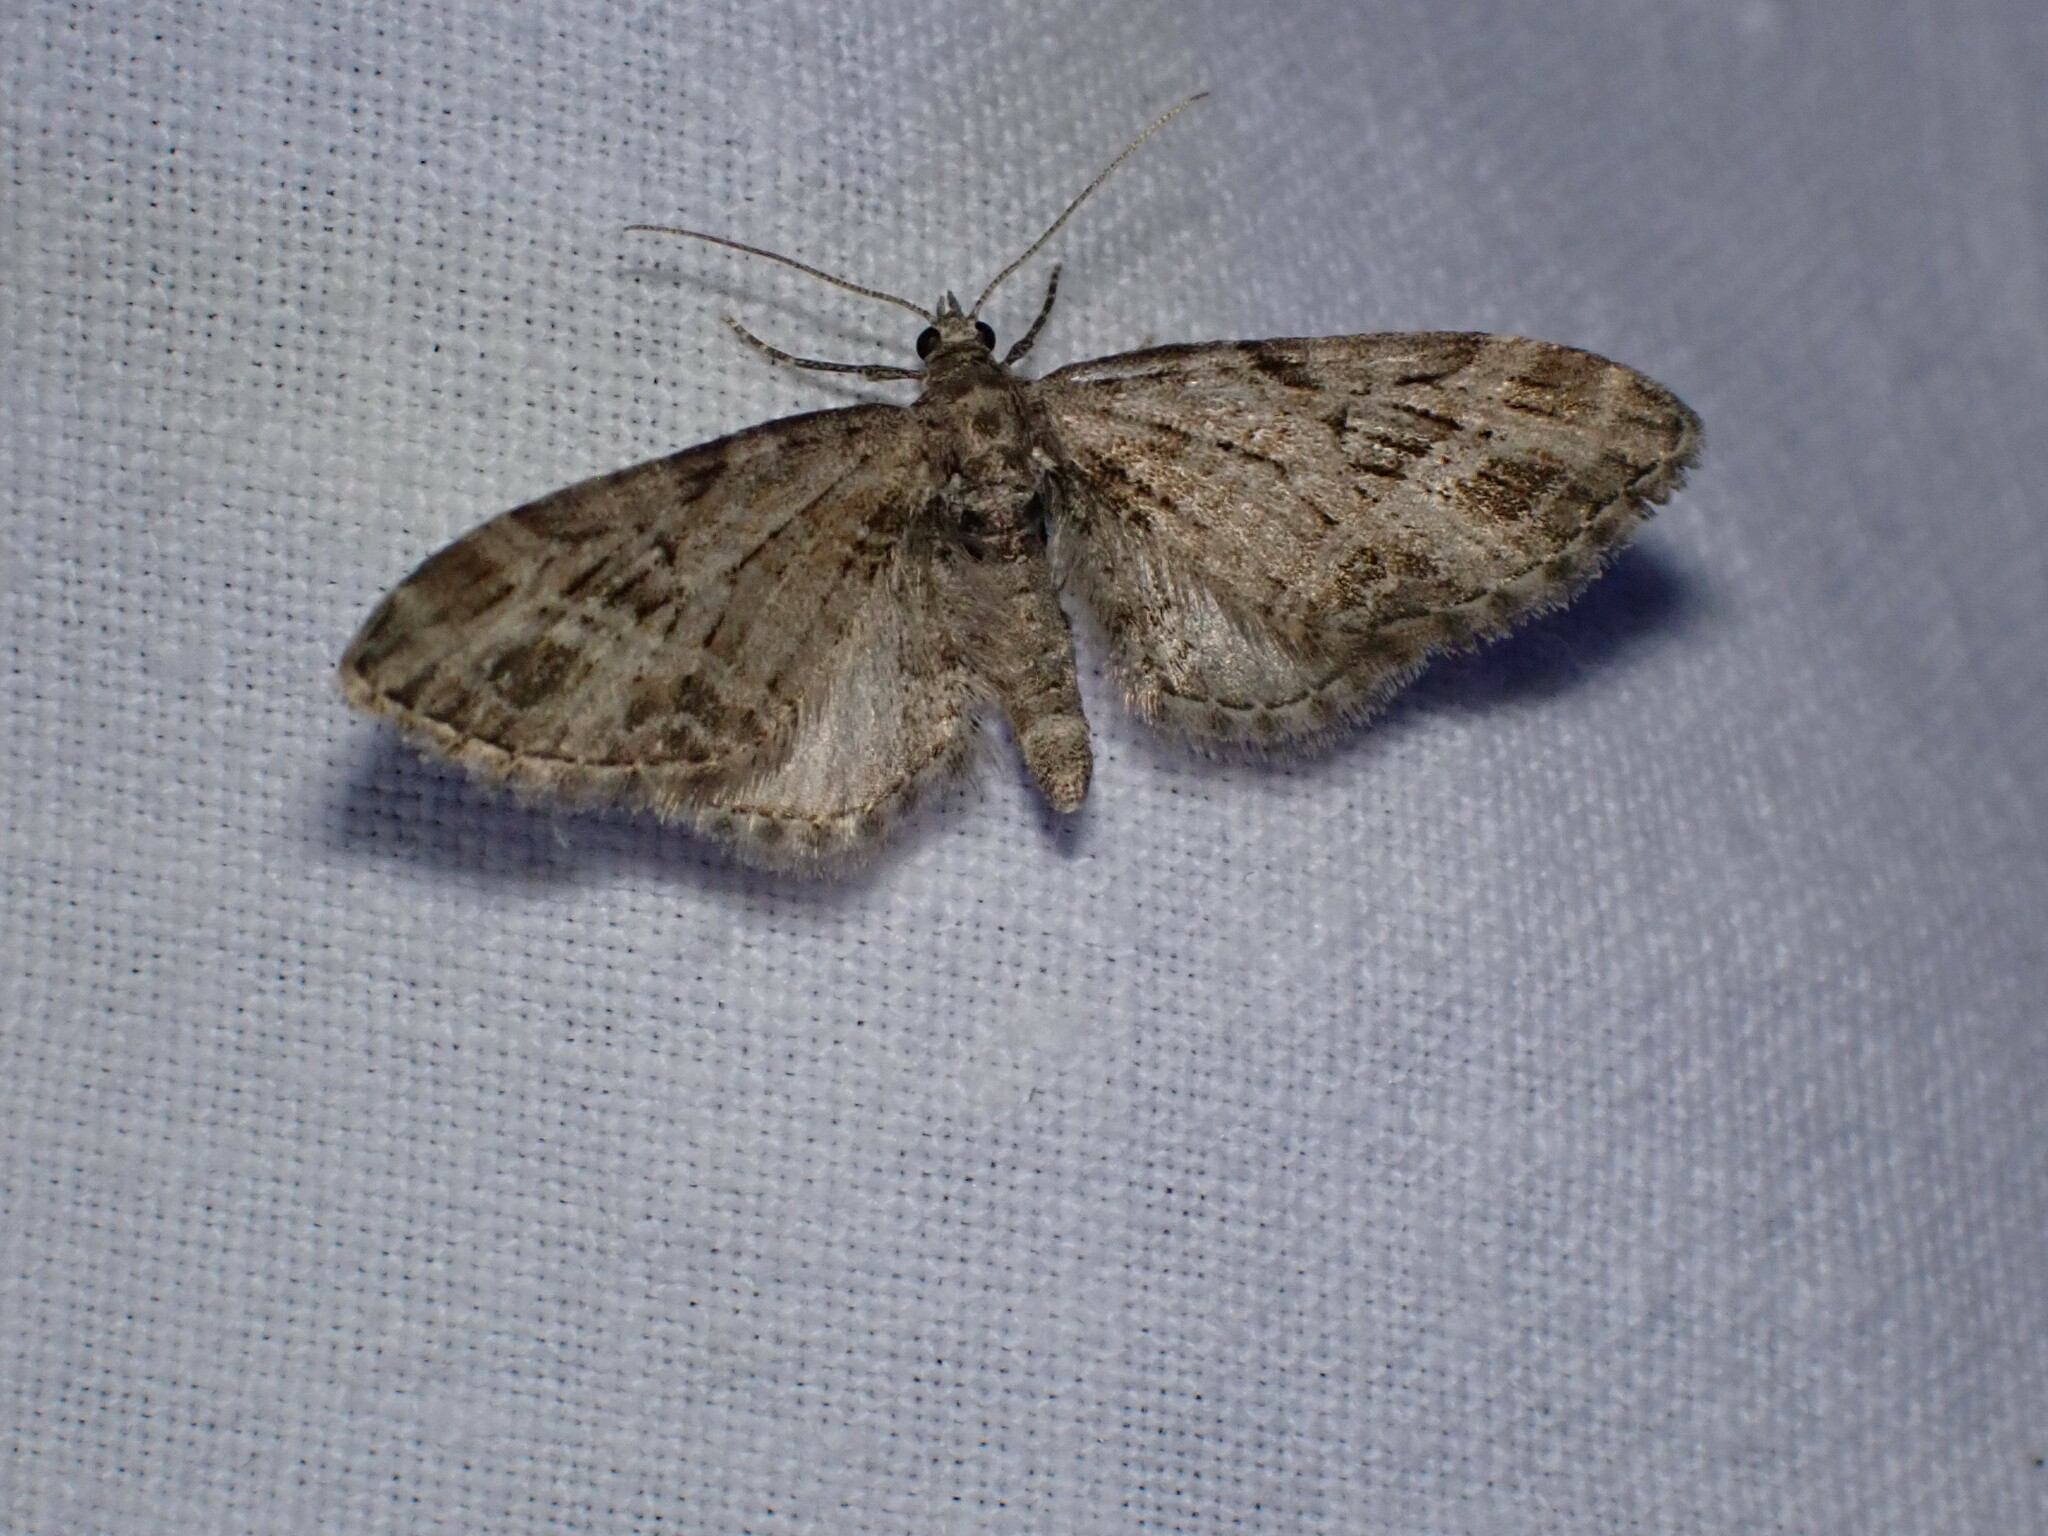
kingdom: Animalia
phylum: Arthropoda
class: Insecta
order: Lepidoptera
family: Geometridae
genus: Eupithecia
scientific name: Eupithecia exiguata
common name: Mottled pug
